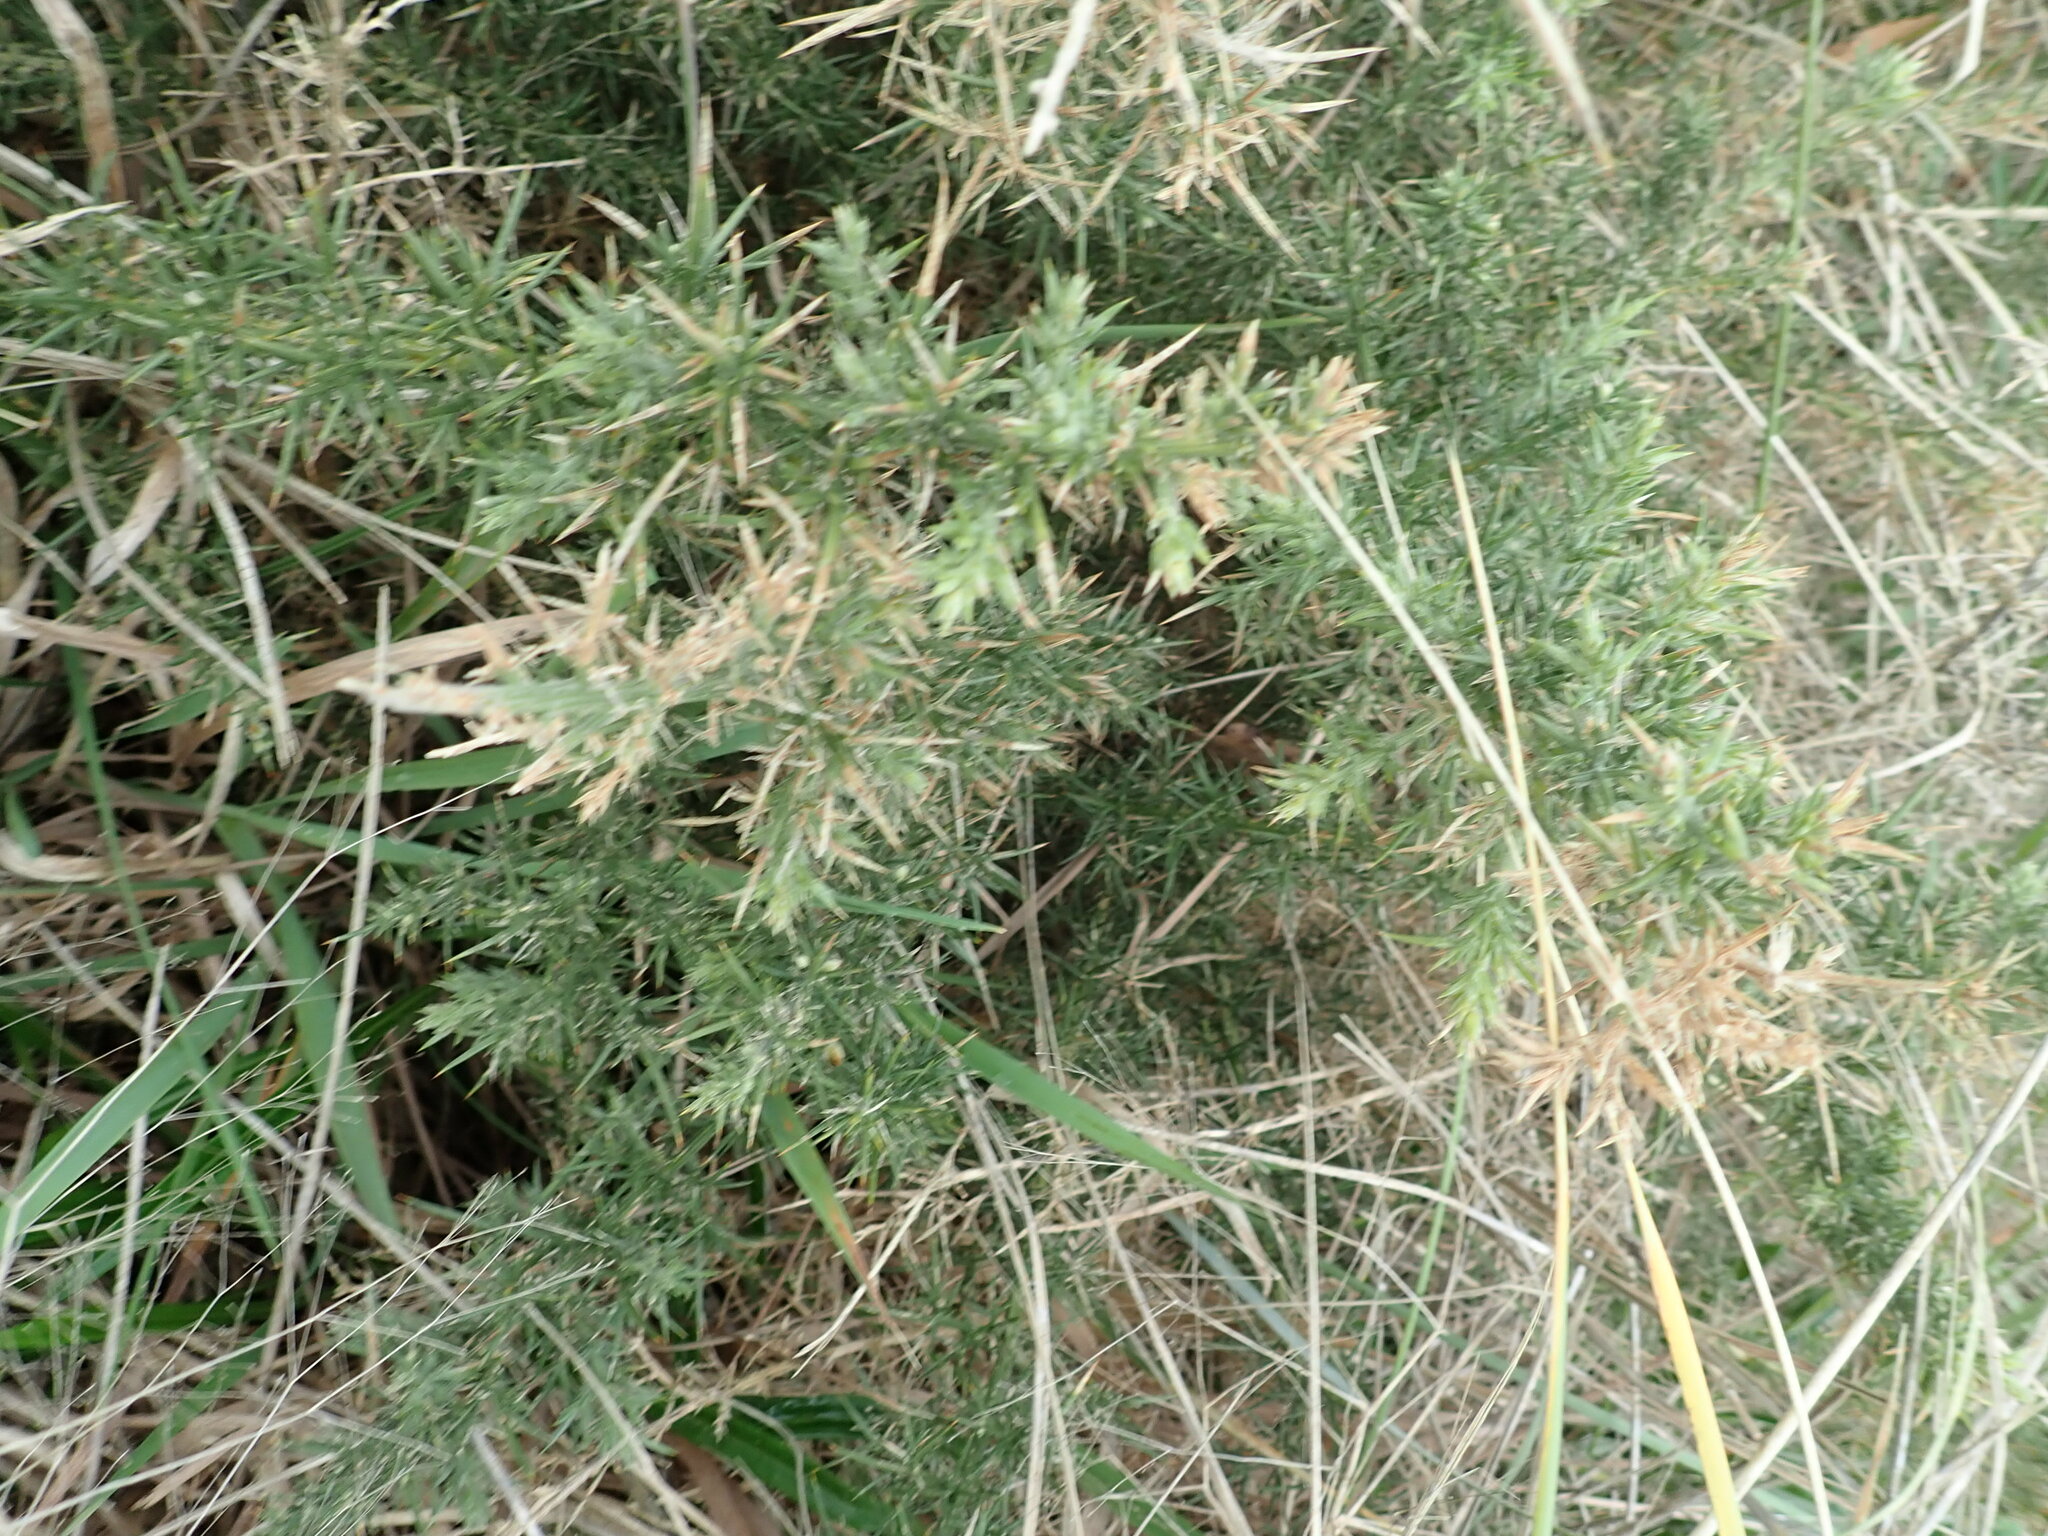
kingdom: Plantae
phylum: Tracheophyta
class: Magnoliopsida
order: Fabales
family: Fabaceae
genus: Ulex
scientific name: Ulex europaeus
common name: Common gorse
